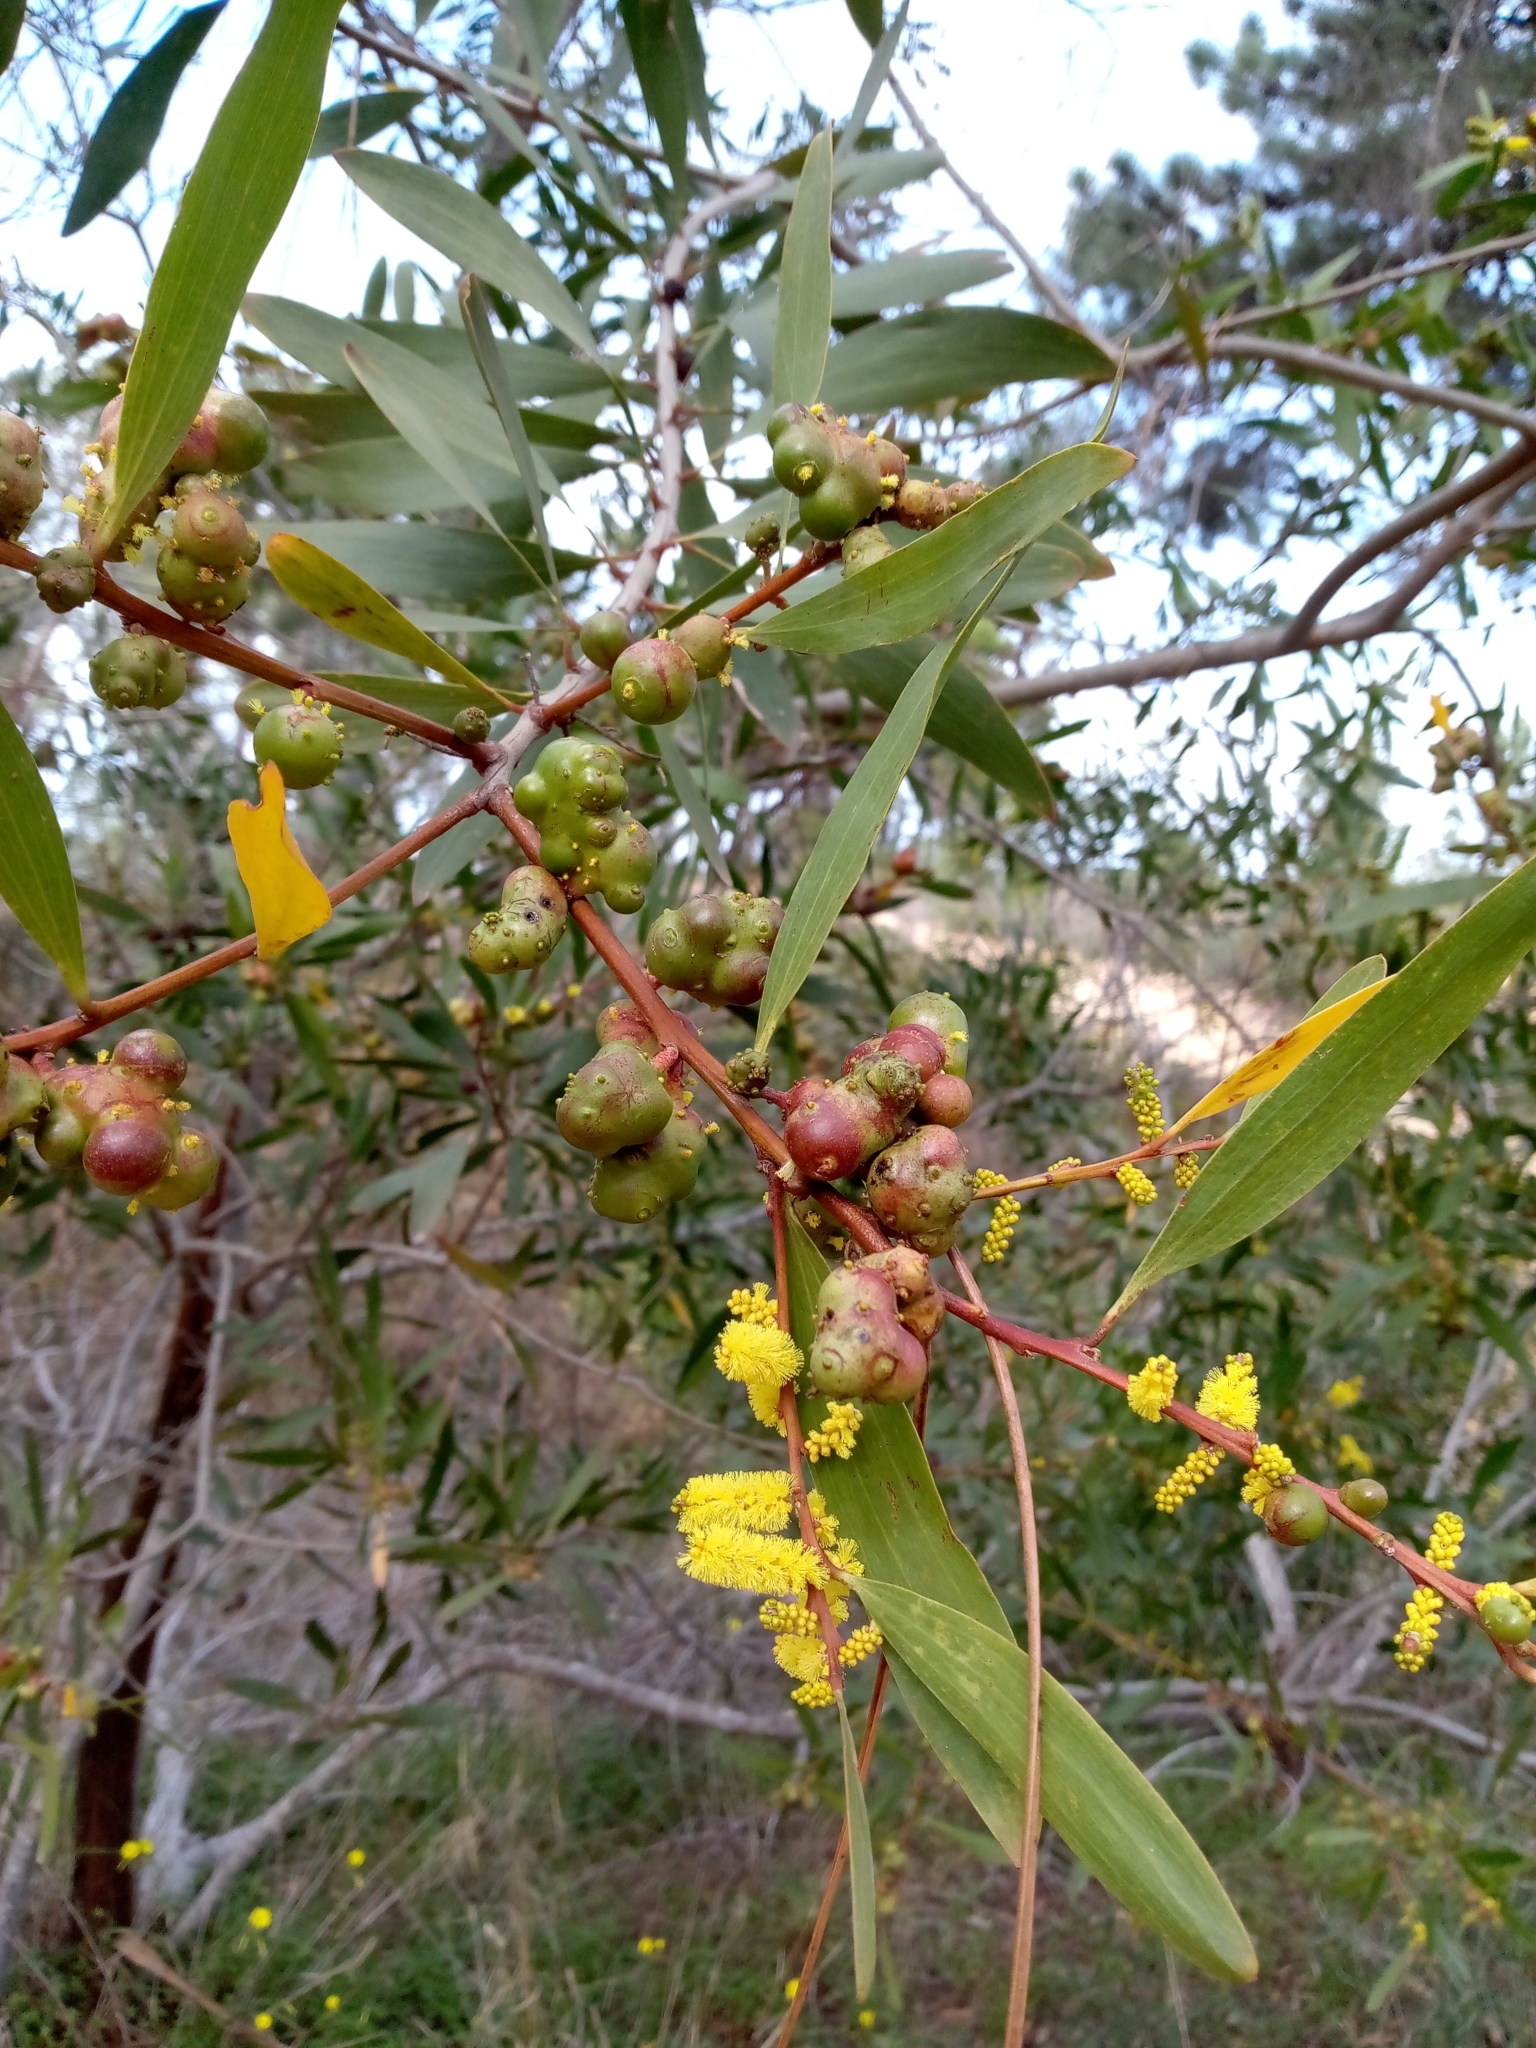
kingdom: Animalia
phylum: Arthropoda
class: Insecta
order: Hymenoptera
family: Pteromalidae
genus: Trichilogaster
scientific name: Trichilogaster acaciaelongifoliae
